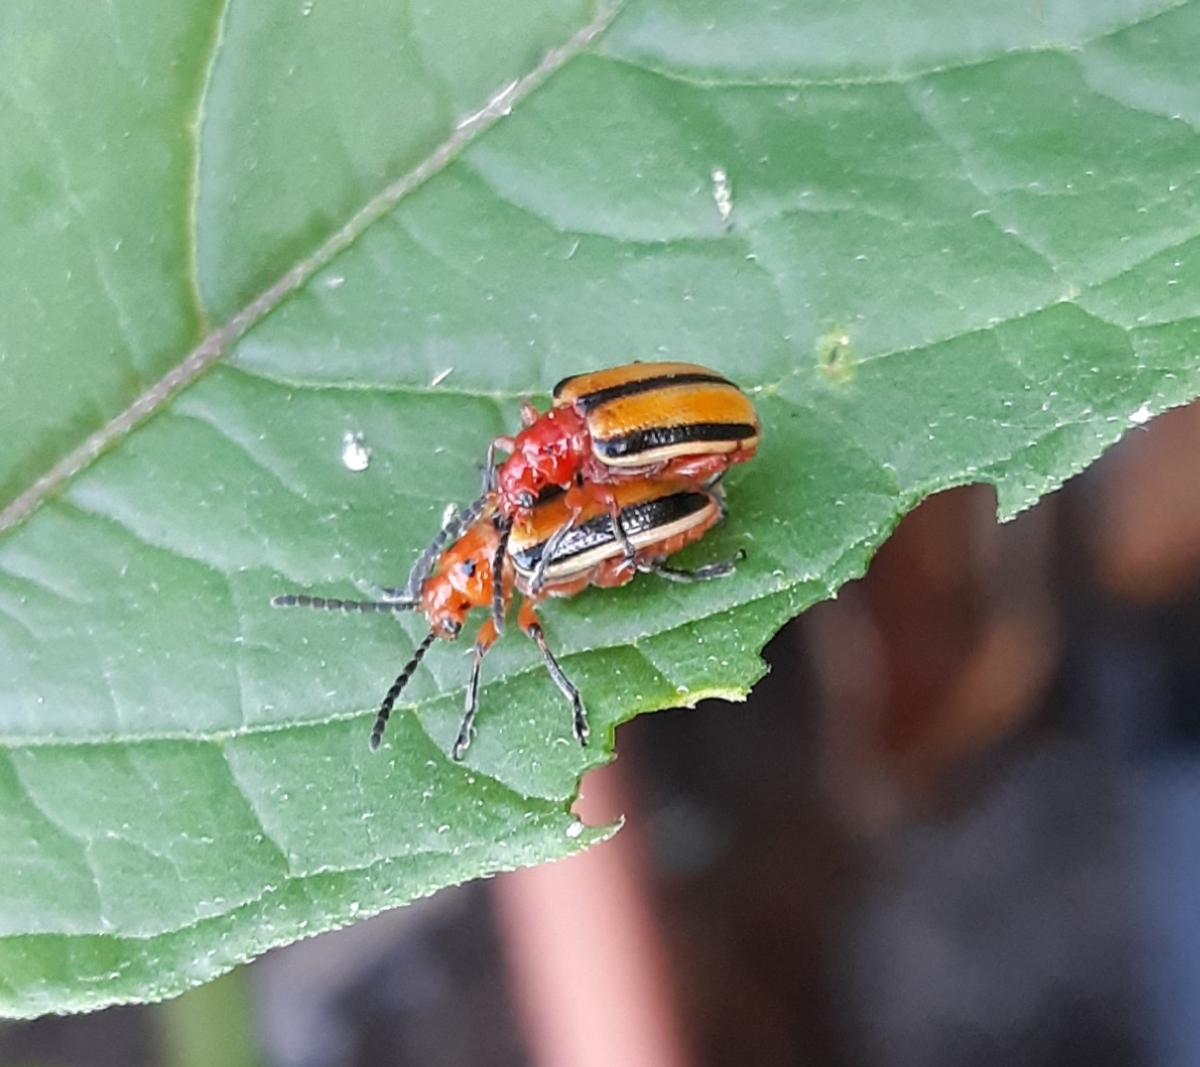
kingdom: Animalia
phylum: Arthropoda
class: Insecta
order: Coleoptera
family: Chrysomelidae
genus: Lema
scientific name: Lema daturaphila
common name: Leaf beetle
